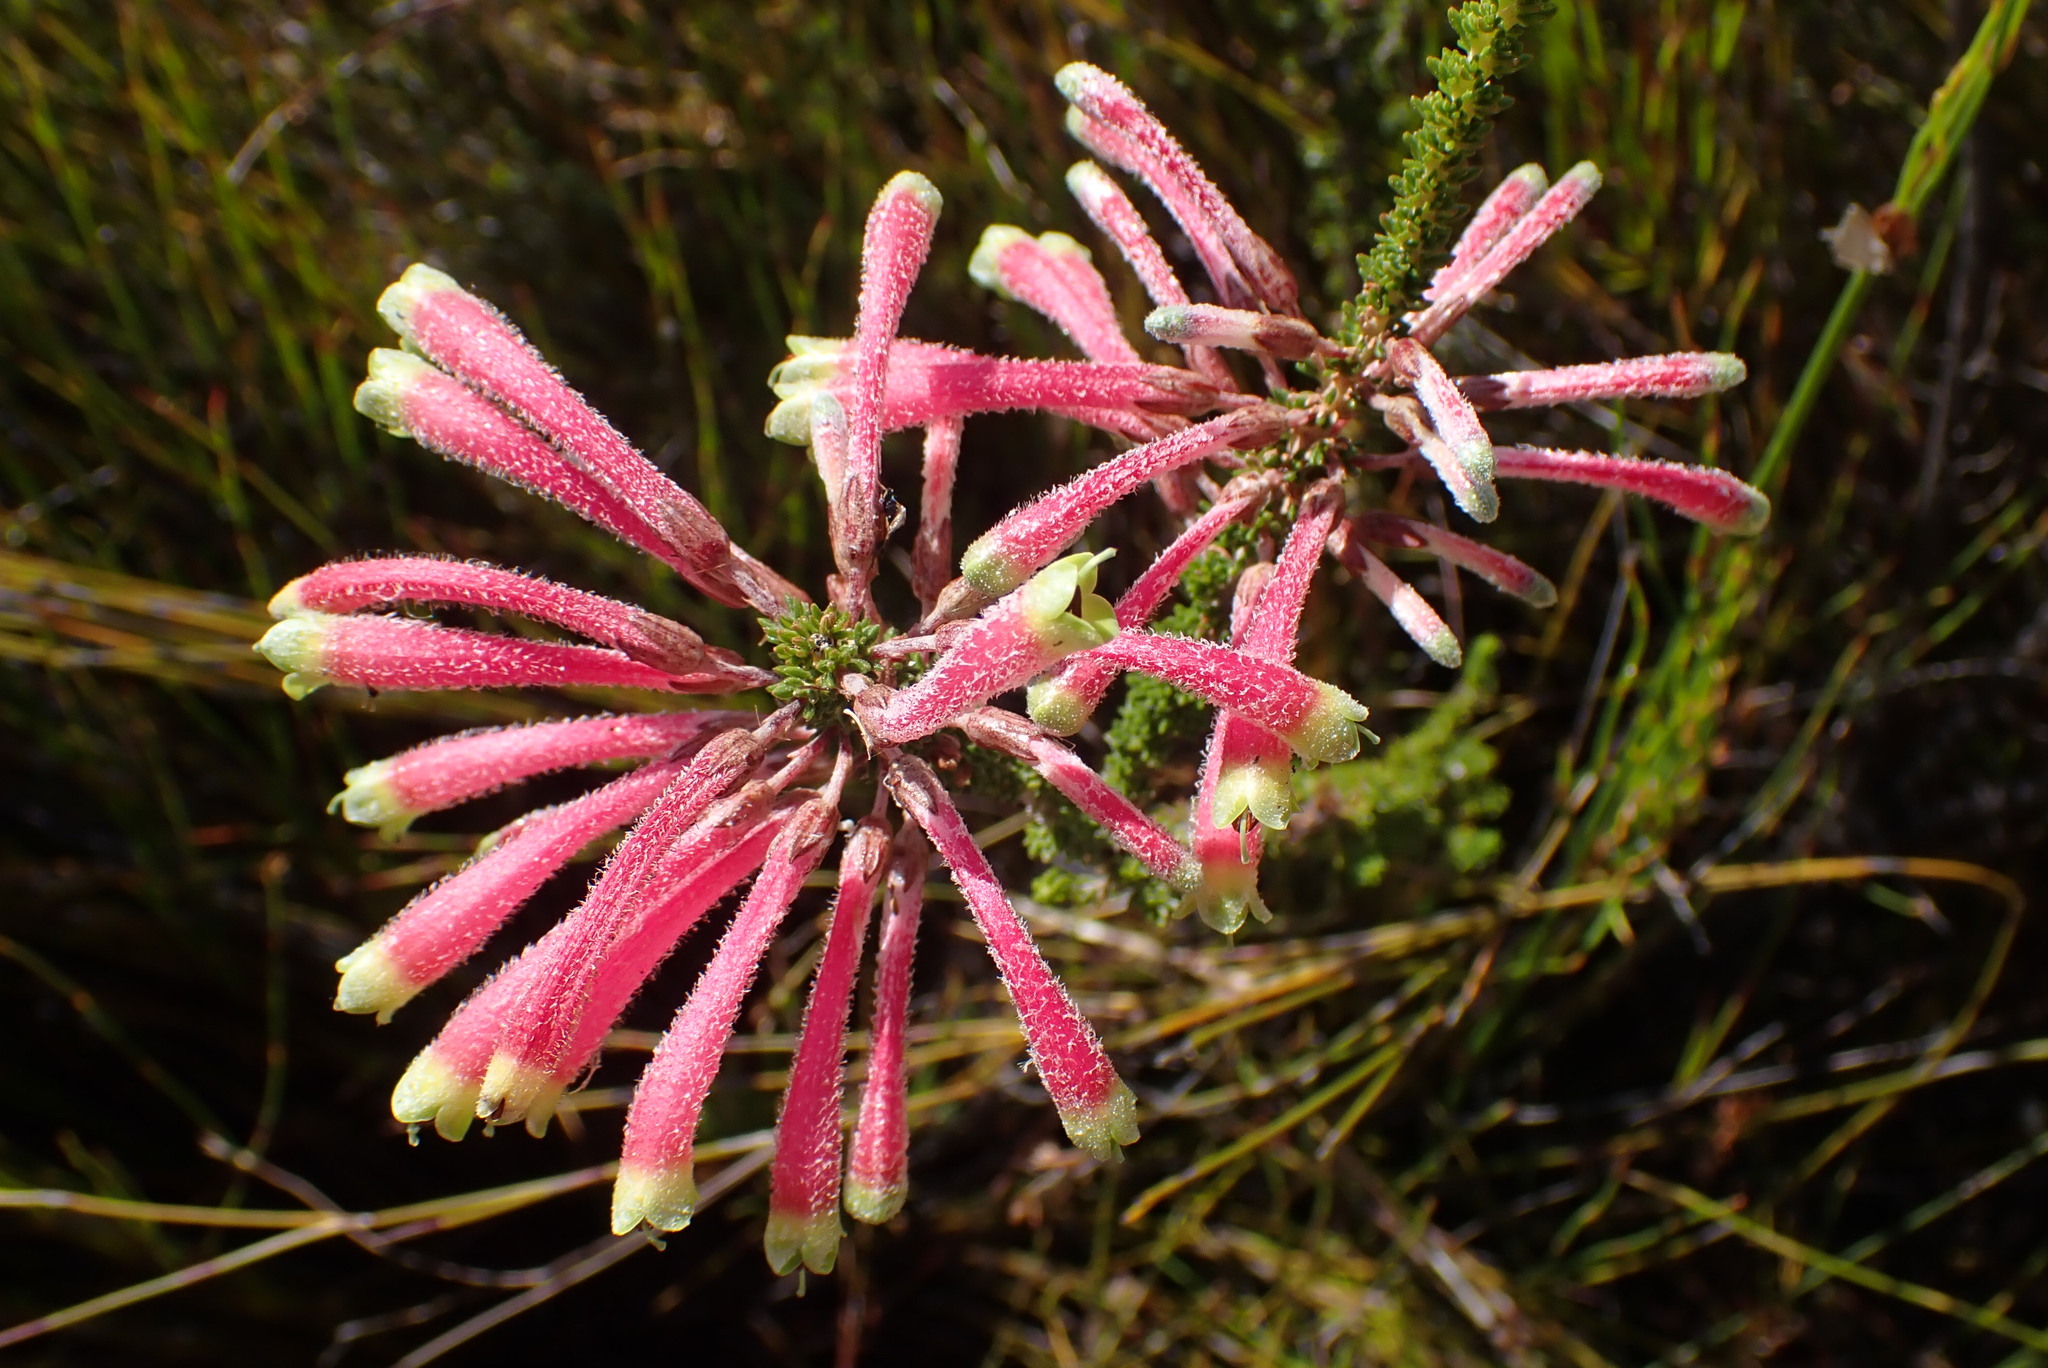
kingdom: Plantae
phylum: Tracheophyta
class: Magnoliopsida
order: Ericales
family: Ericaceae
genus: Erica
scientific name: Erica densifolia
